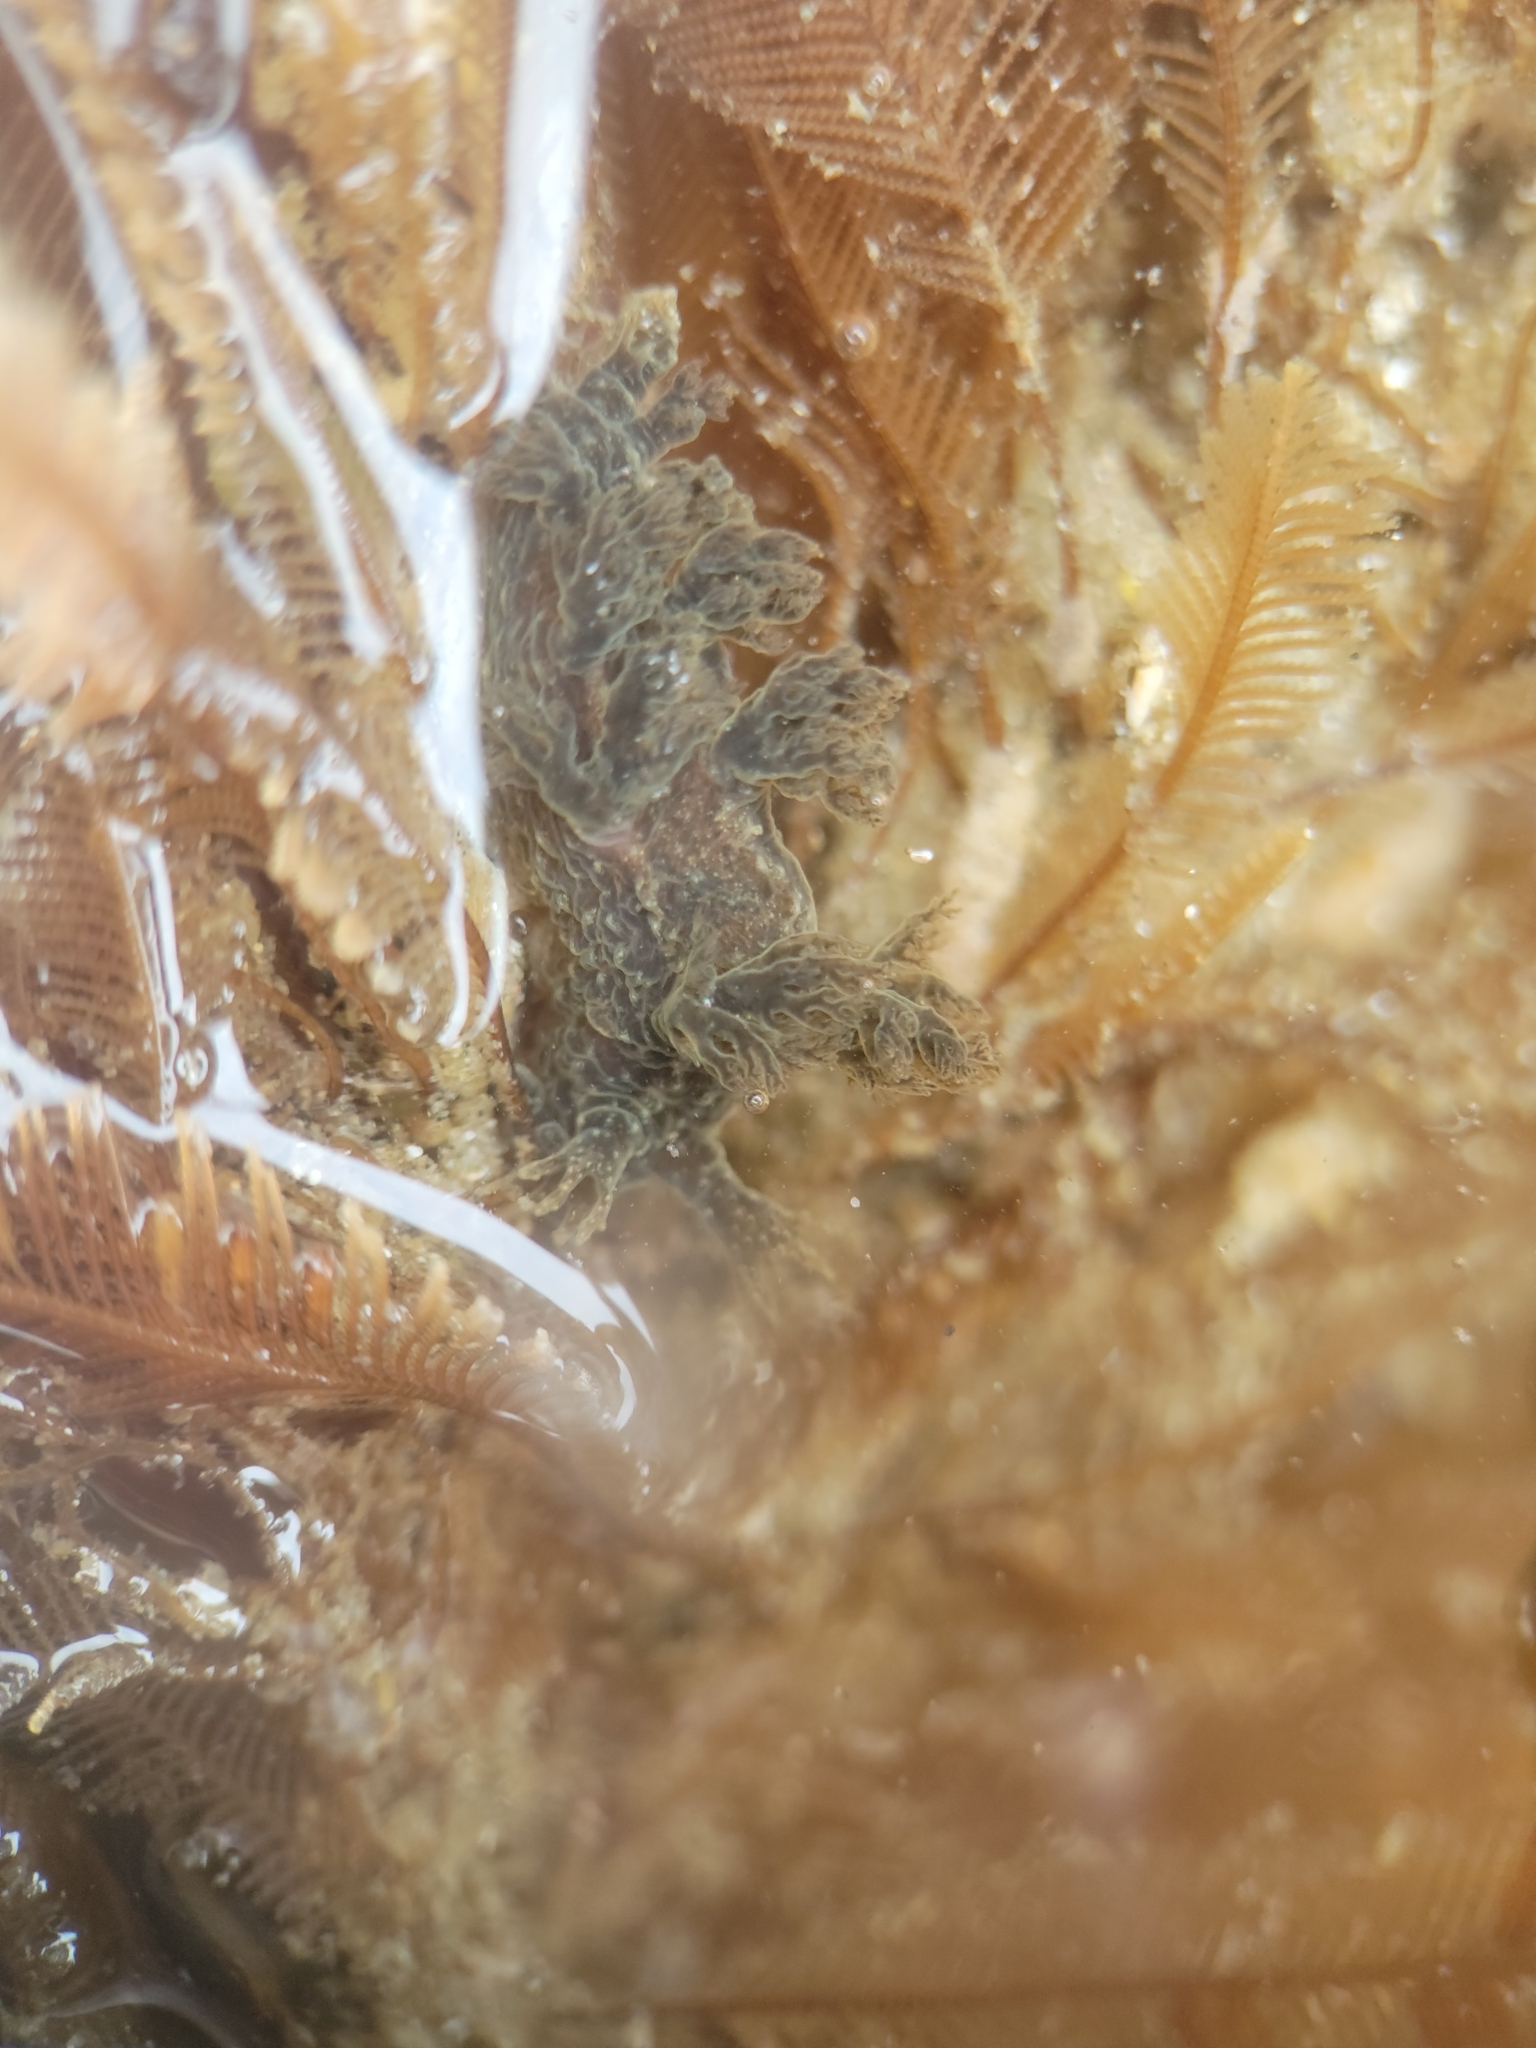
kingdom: Animalia
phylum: Mollusca
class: Gastropoda
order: Nudibranchia
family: Dendronotidae
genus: Dendronotus
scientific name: Dendronotus subramosus
